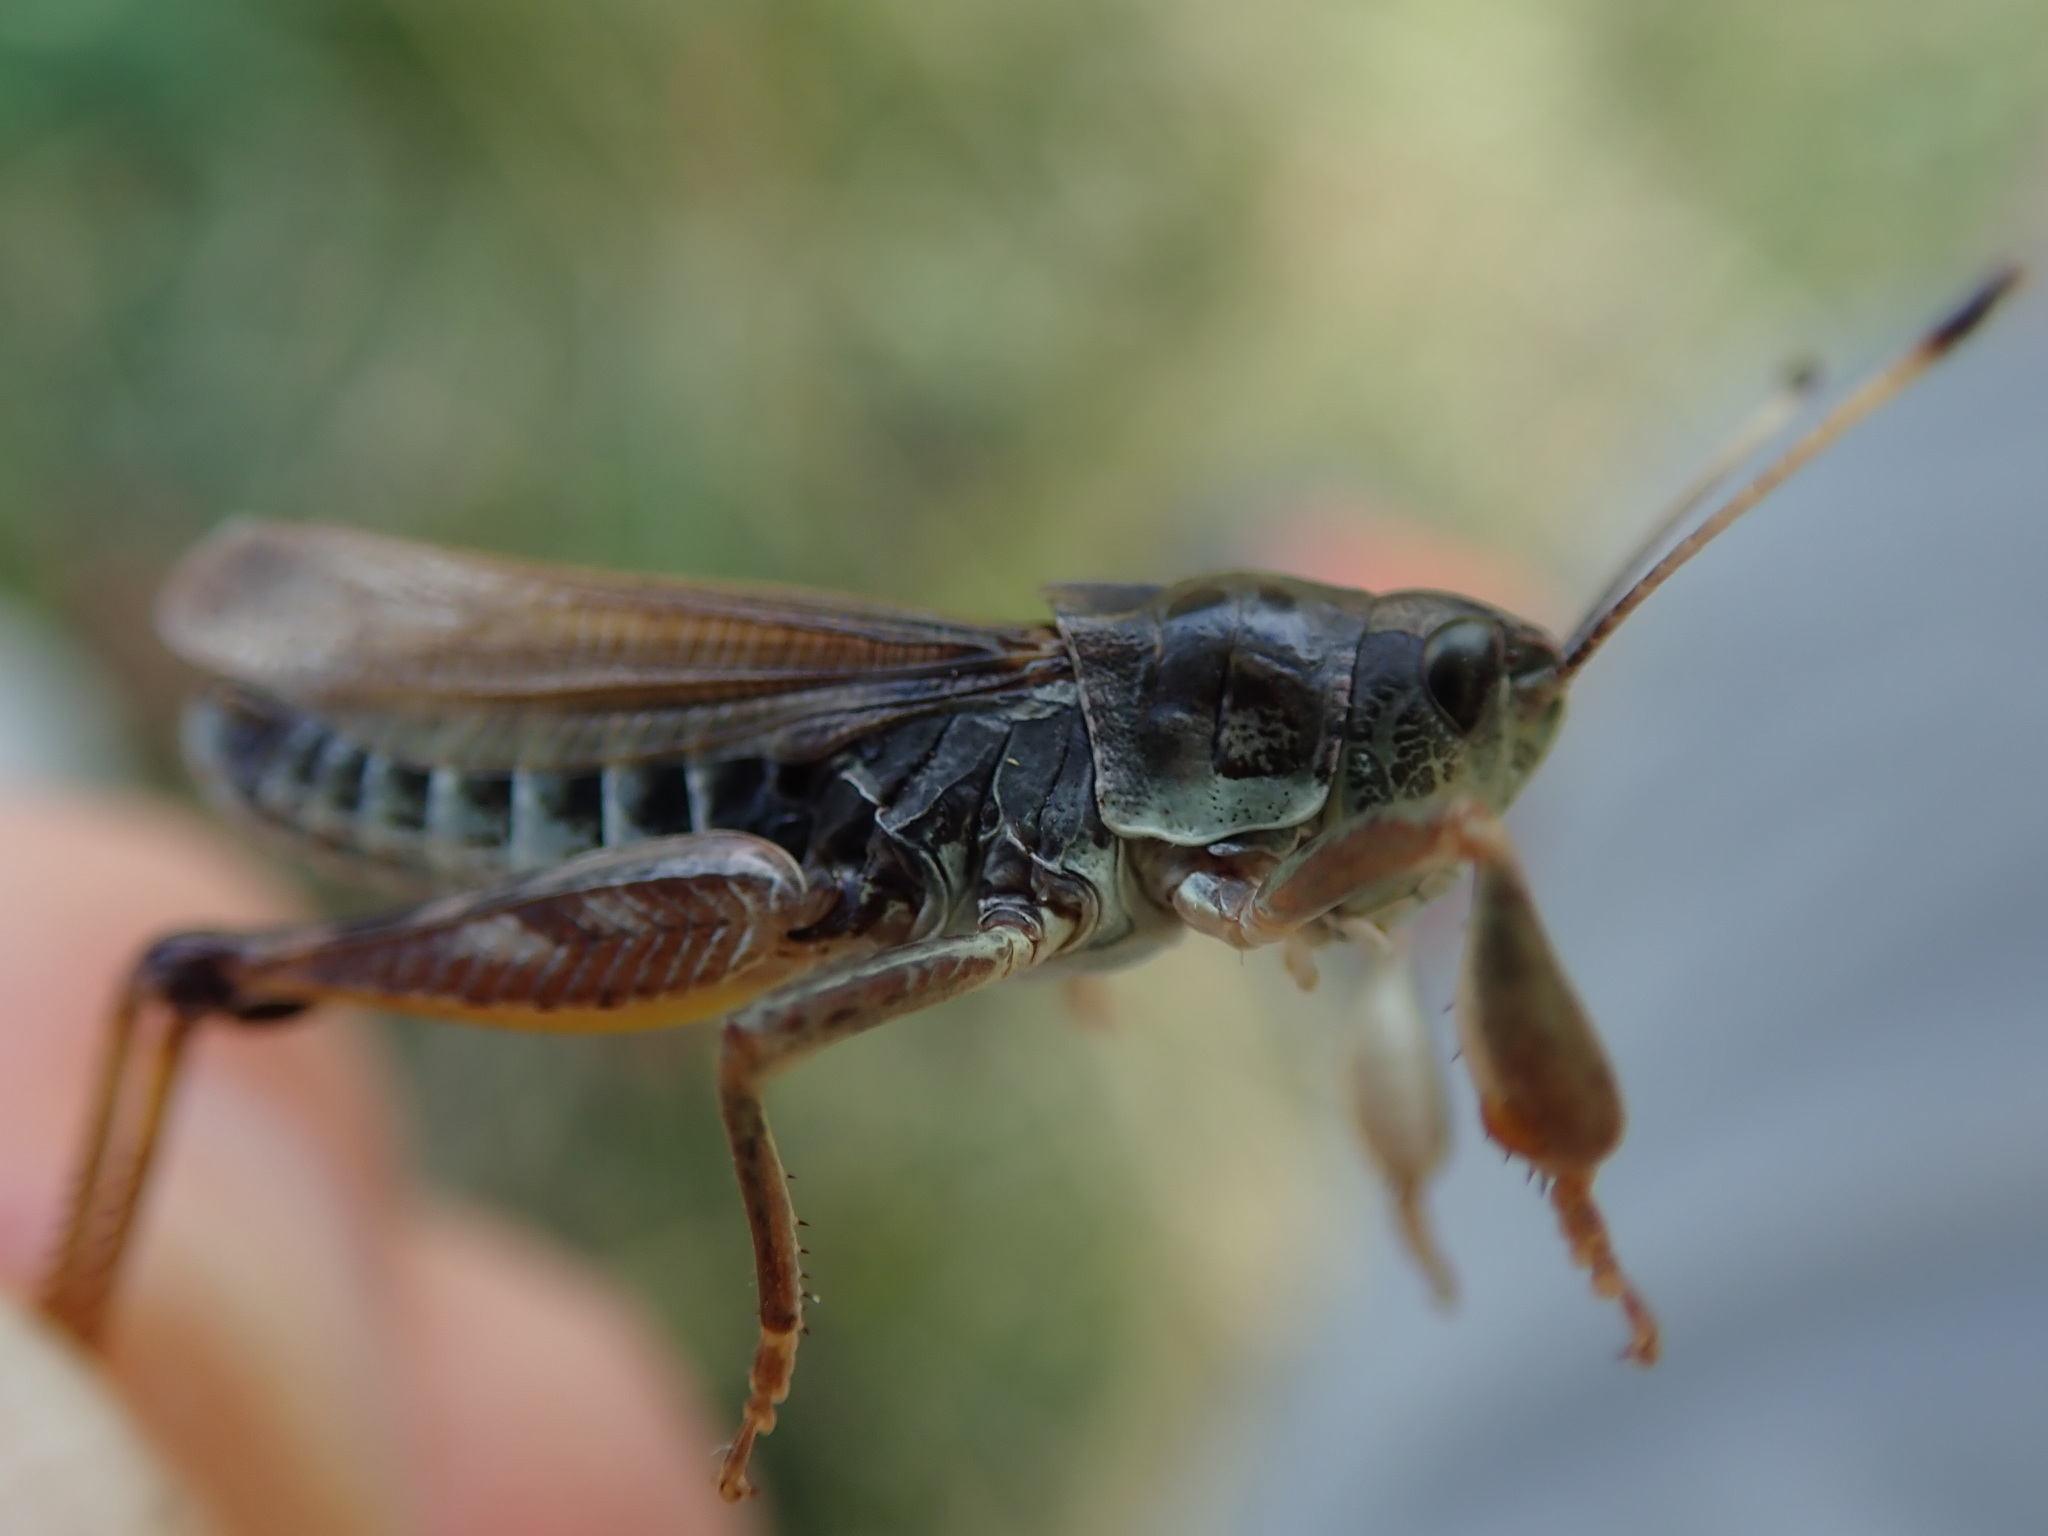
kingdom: Animalia
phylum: Arthropoda
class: Insecta
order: Orthoptera
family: Acrididae
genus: Gomphocerus
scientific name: Gomphocerus sibiricus
